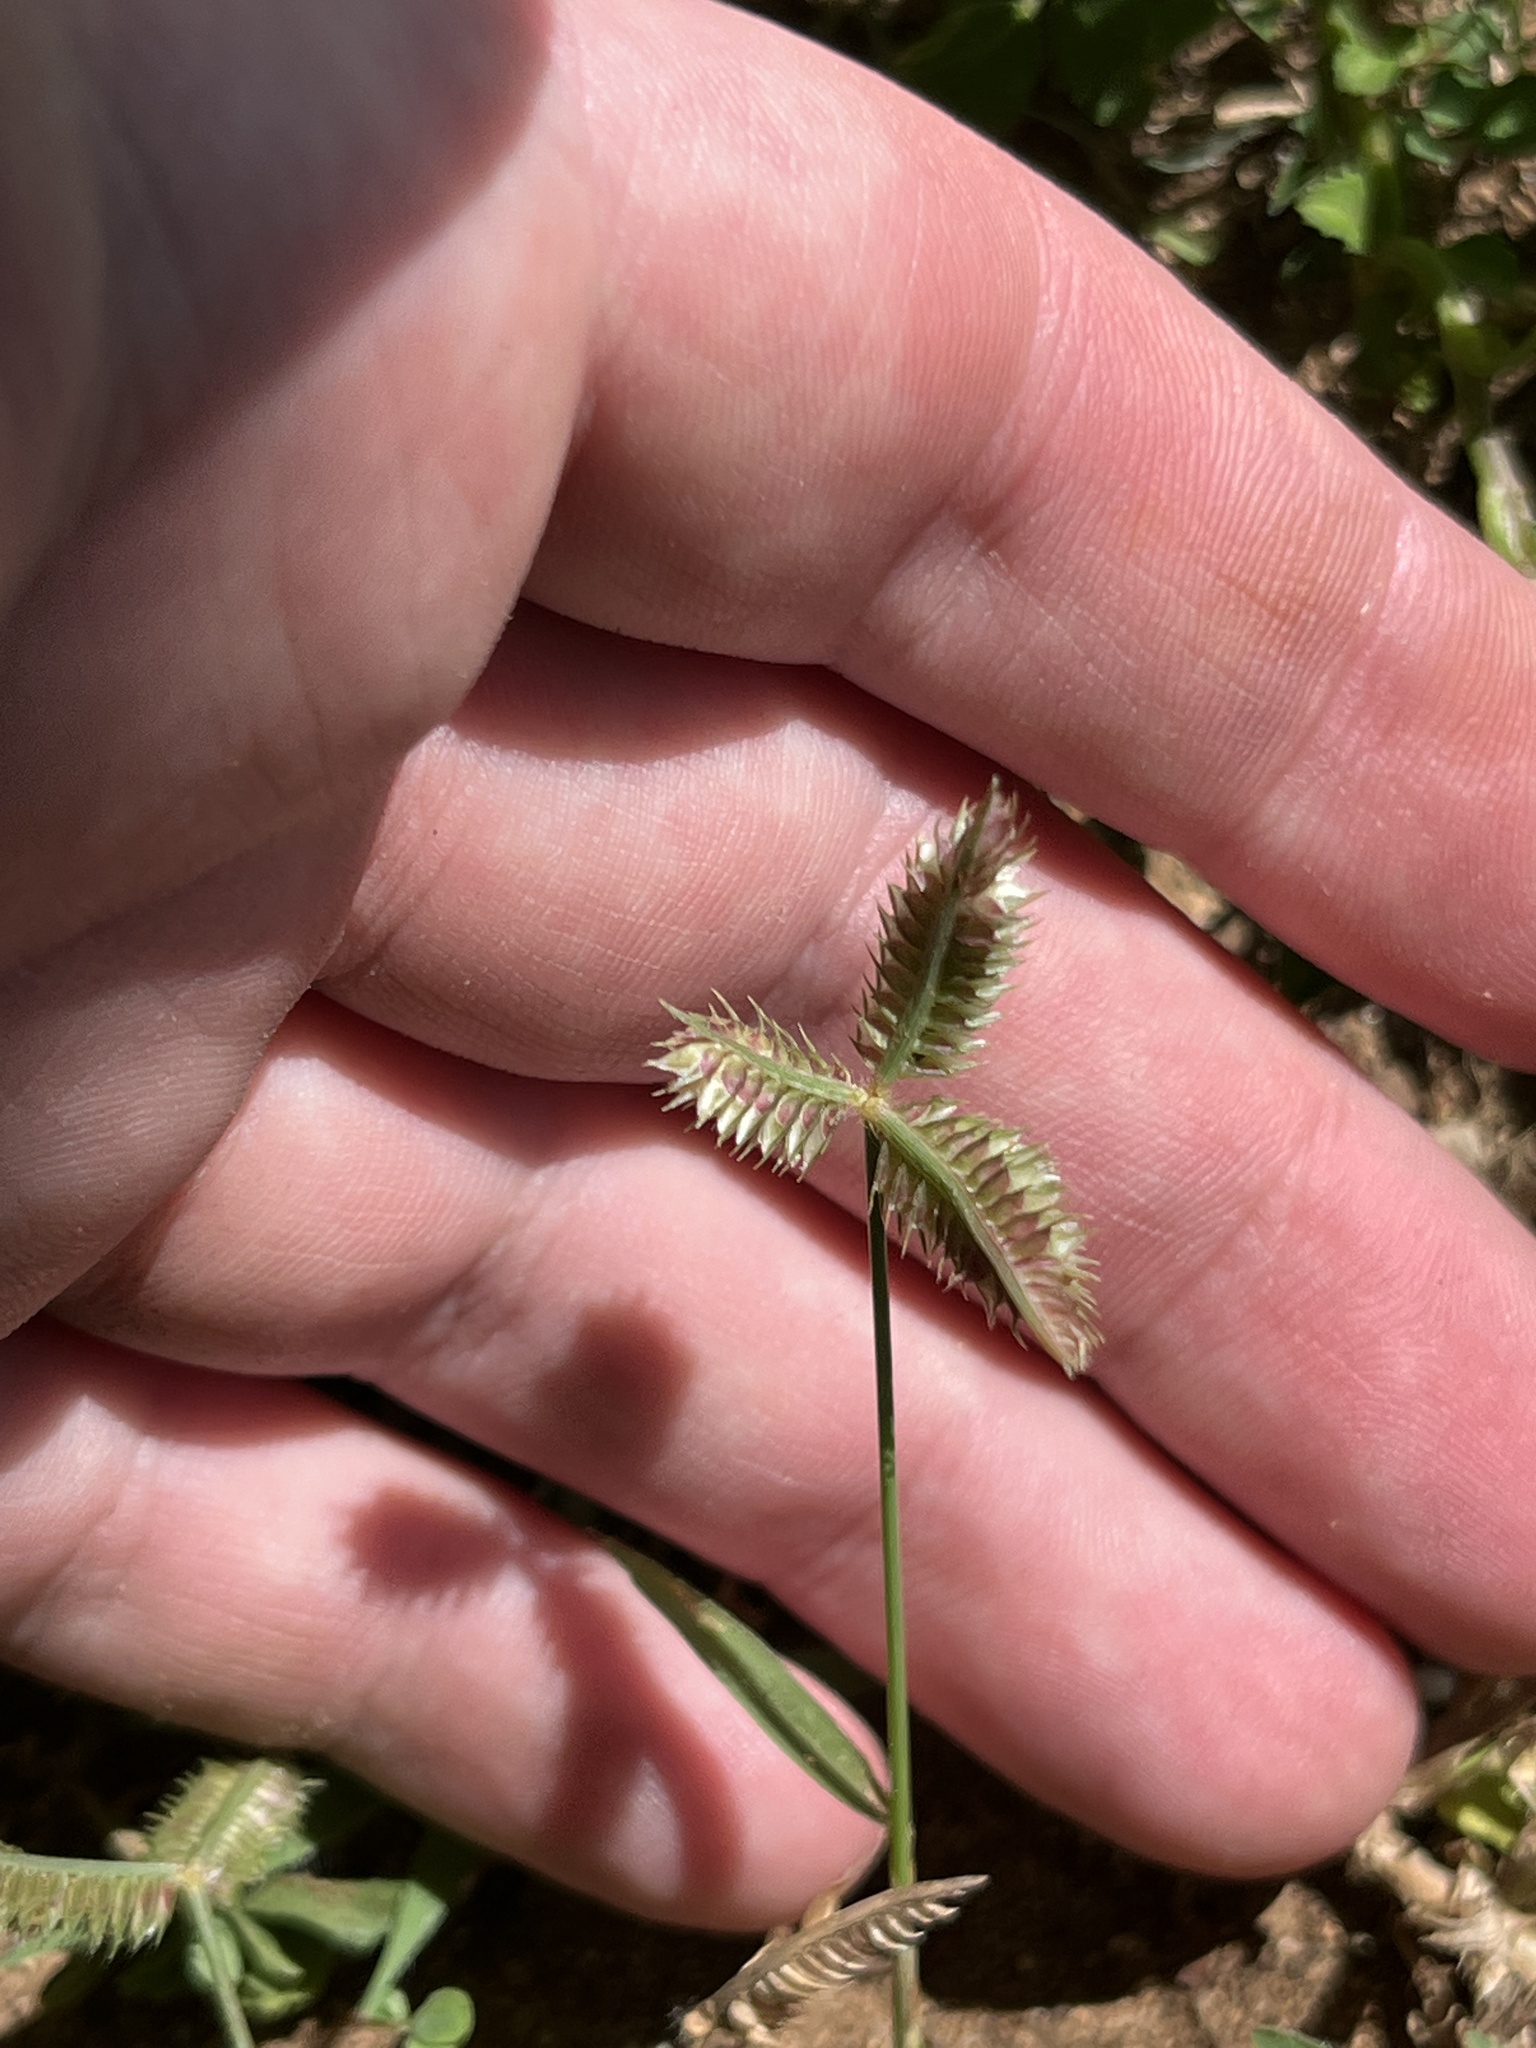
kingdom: Plantae
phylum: Tracheophyta
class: Liliopsida
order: Poales
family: Poaceae
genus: Dactyloctenium
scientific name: Dactyloctenium aegyptium
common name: Egyptian grass
